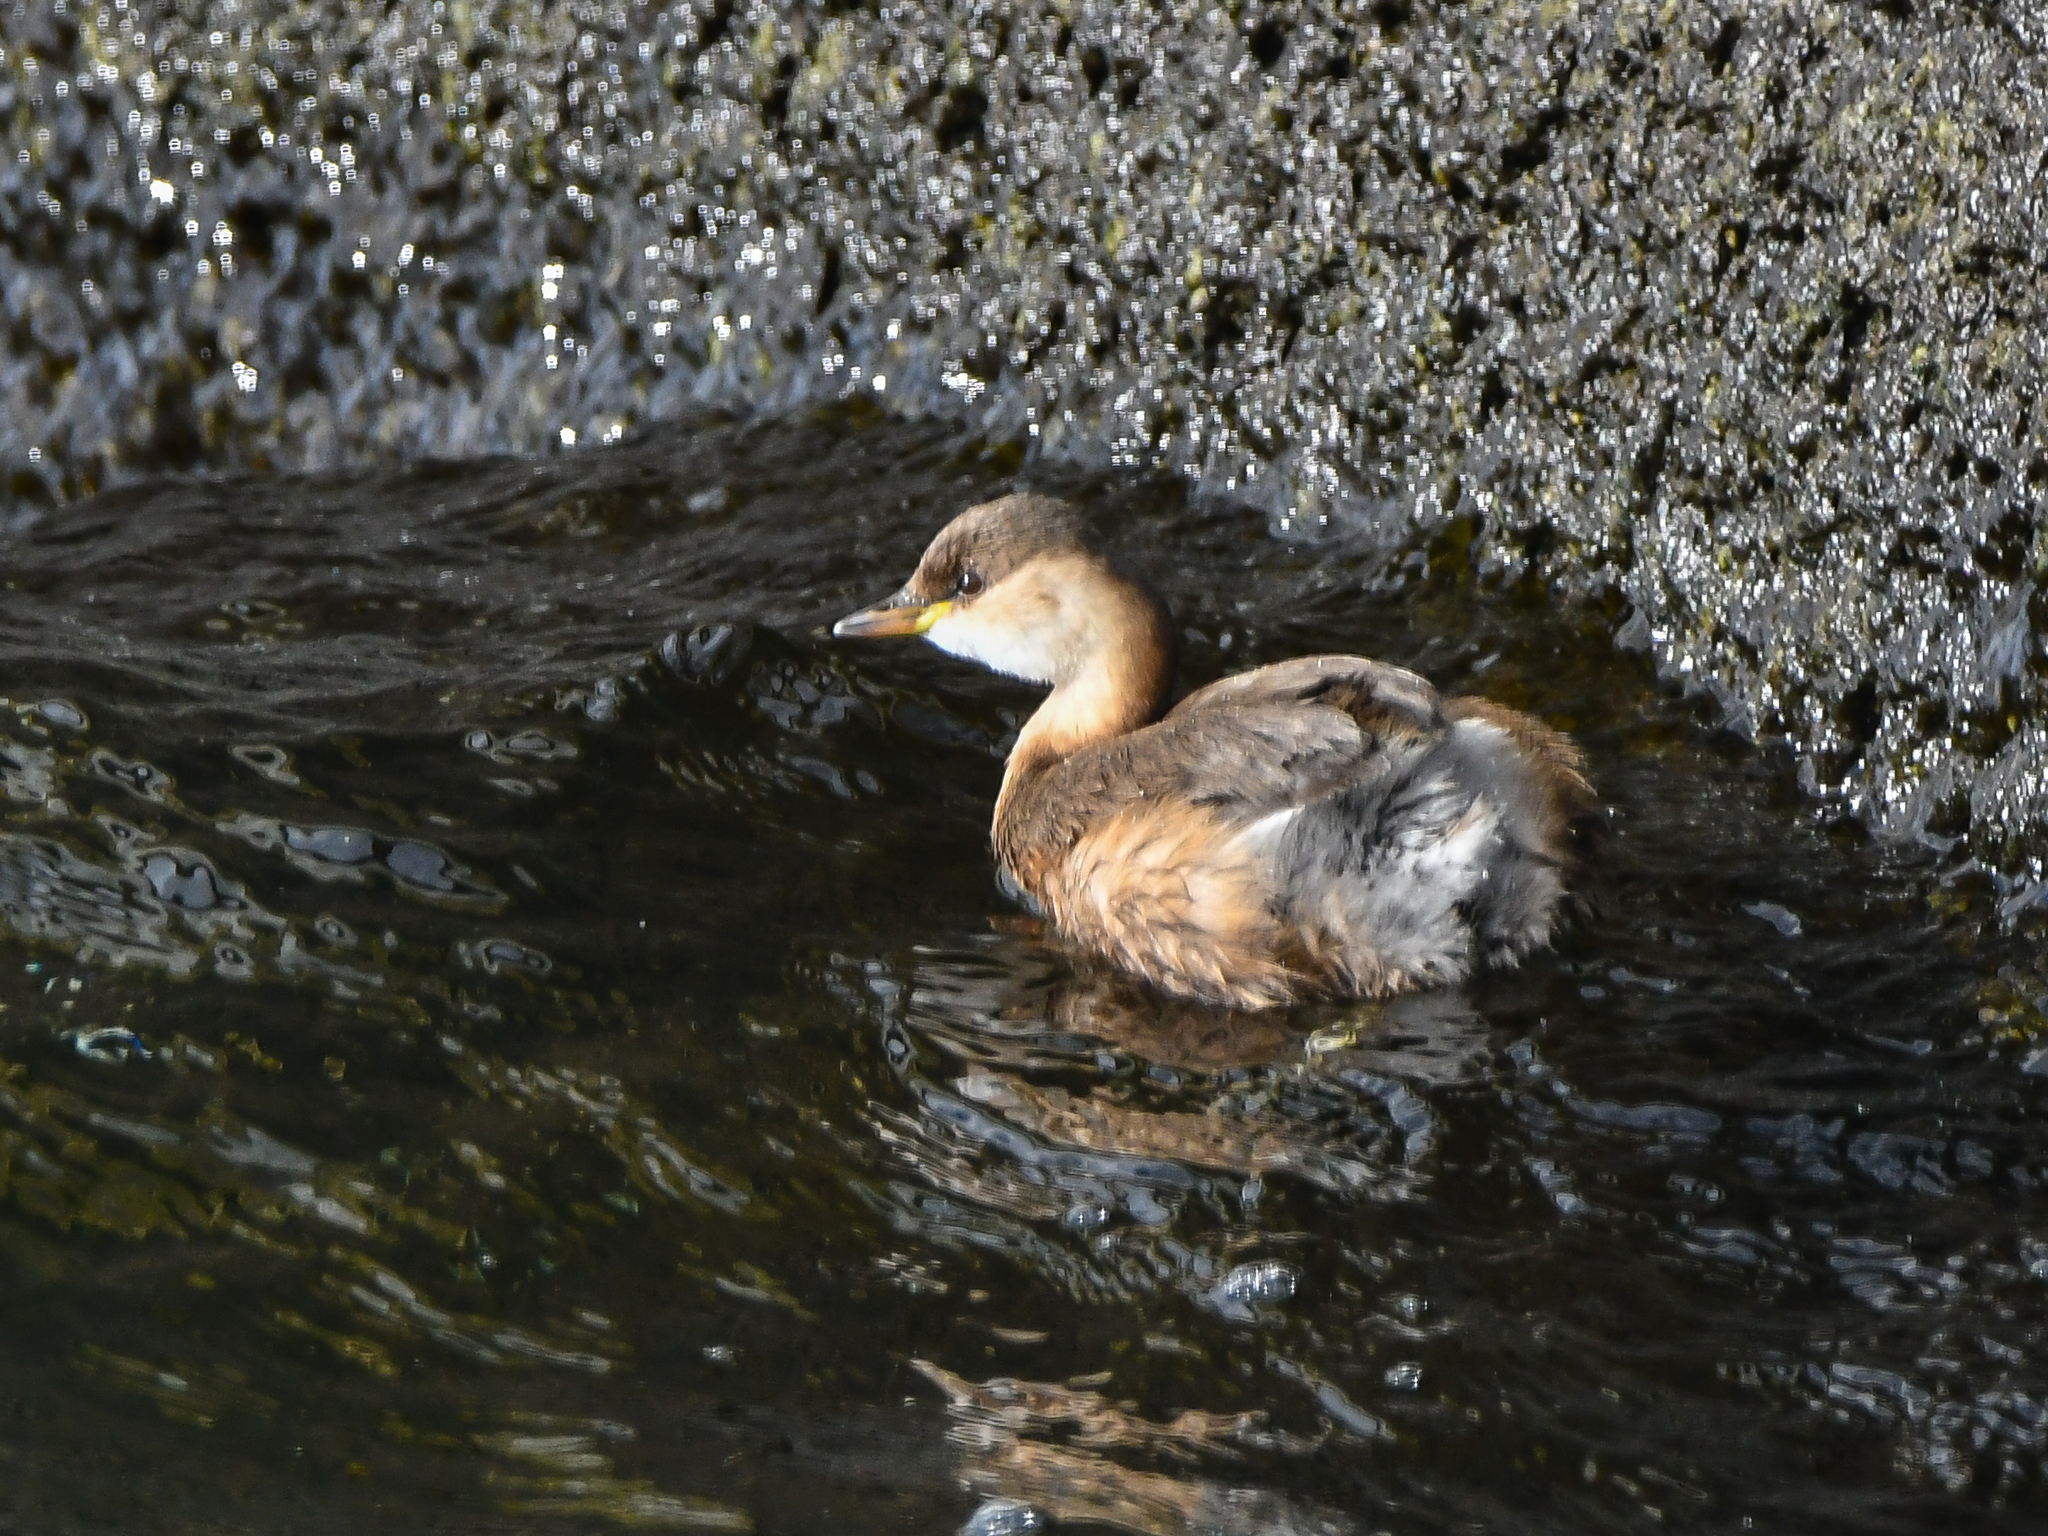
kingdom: Animalia
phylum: Chordata
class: Aves
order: Podicipediformes
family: Podicipedidae
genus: Tachybaptus
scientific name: Tachybaptus ruficollis
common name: Little grebe
